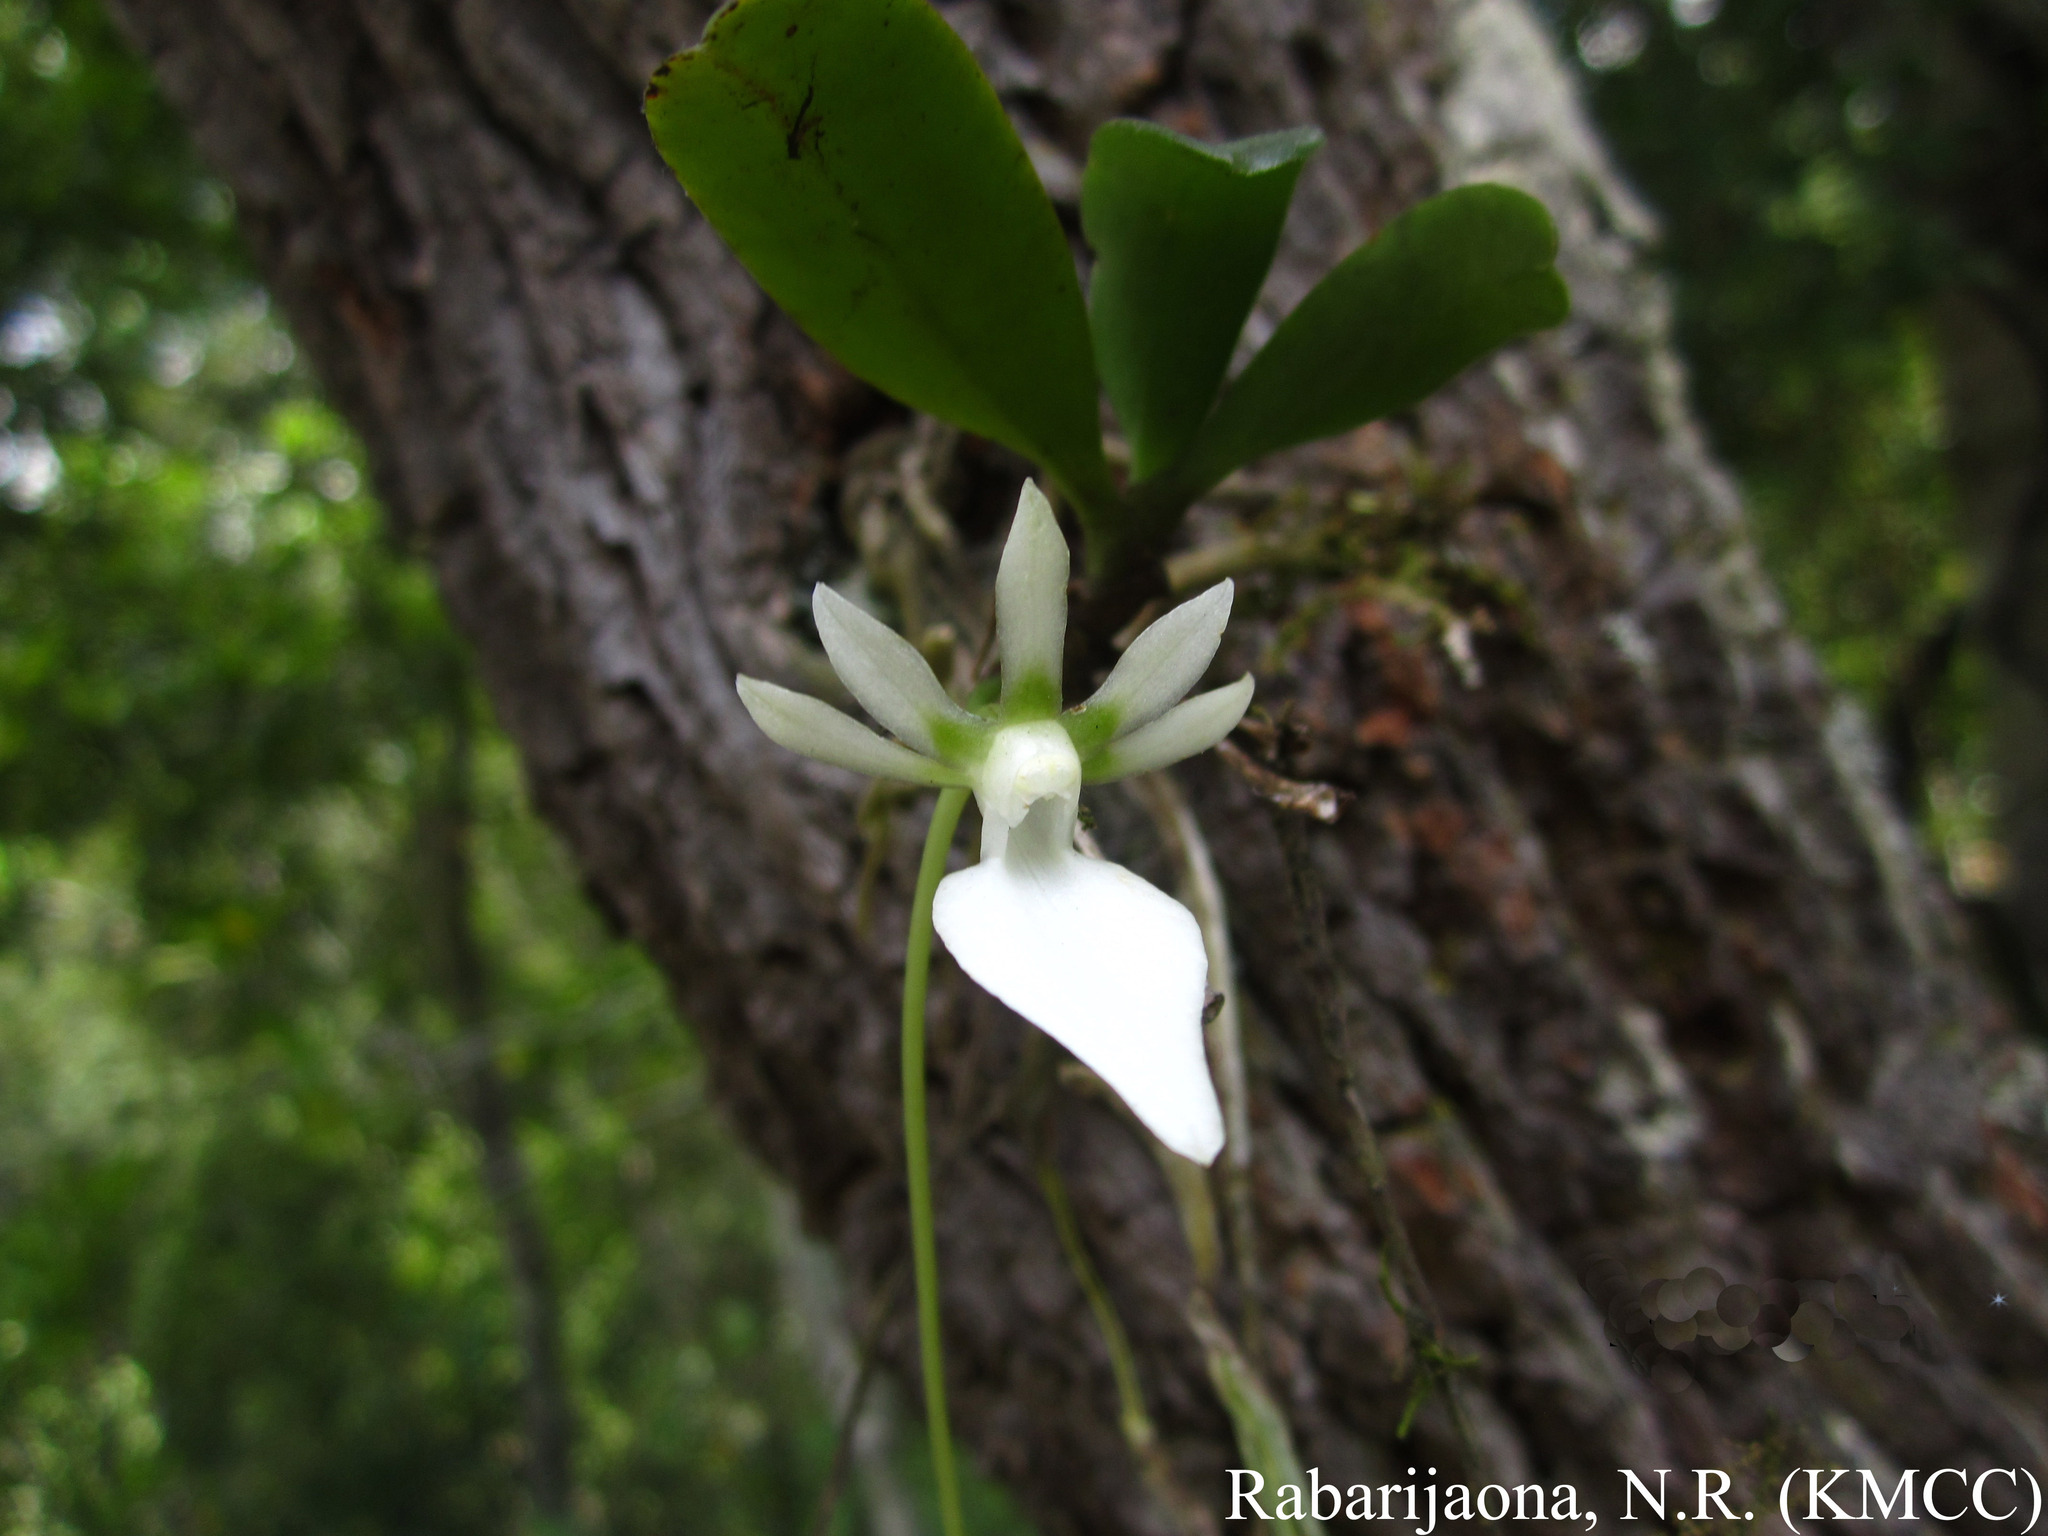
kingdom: Plantae
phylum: Tracheophyta
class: Liliopsida
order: Asparagales
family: Orchidaceae
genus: Neobathiea
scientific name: Neobathiea grandidierana
